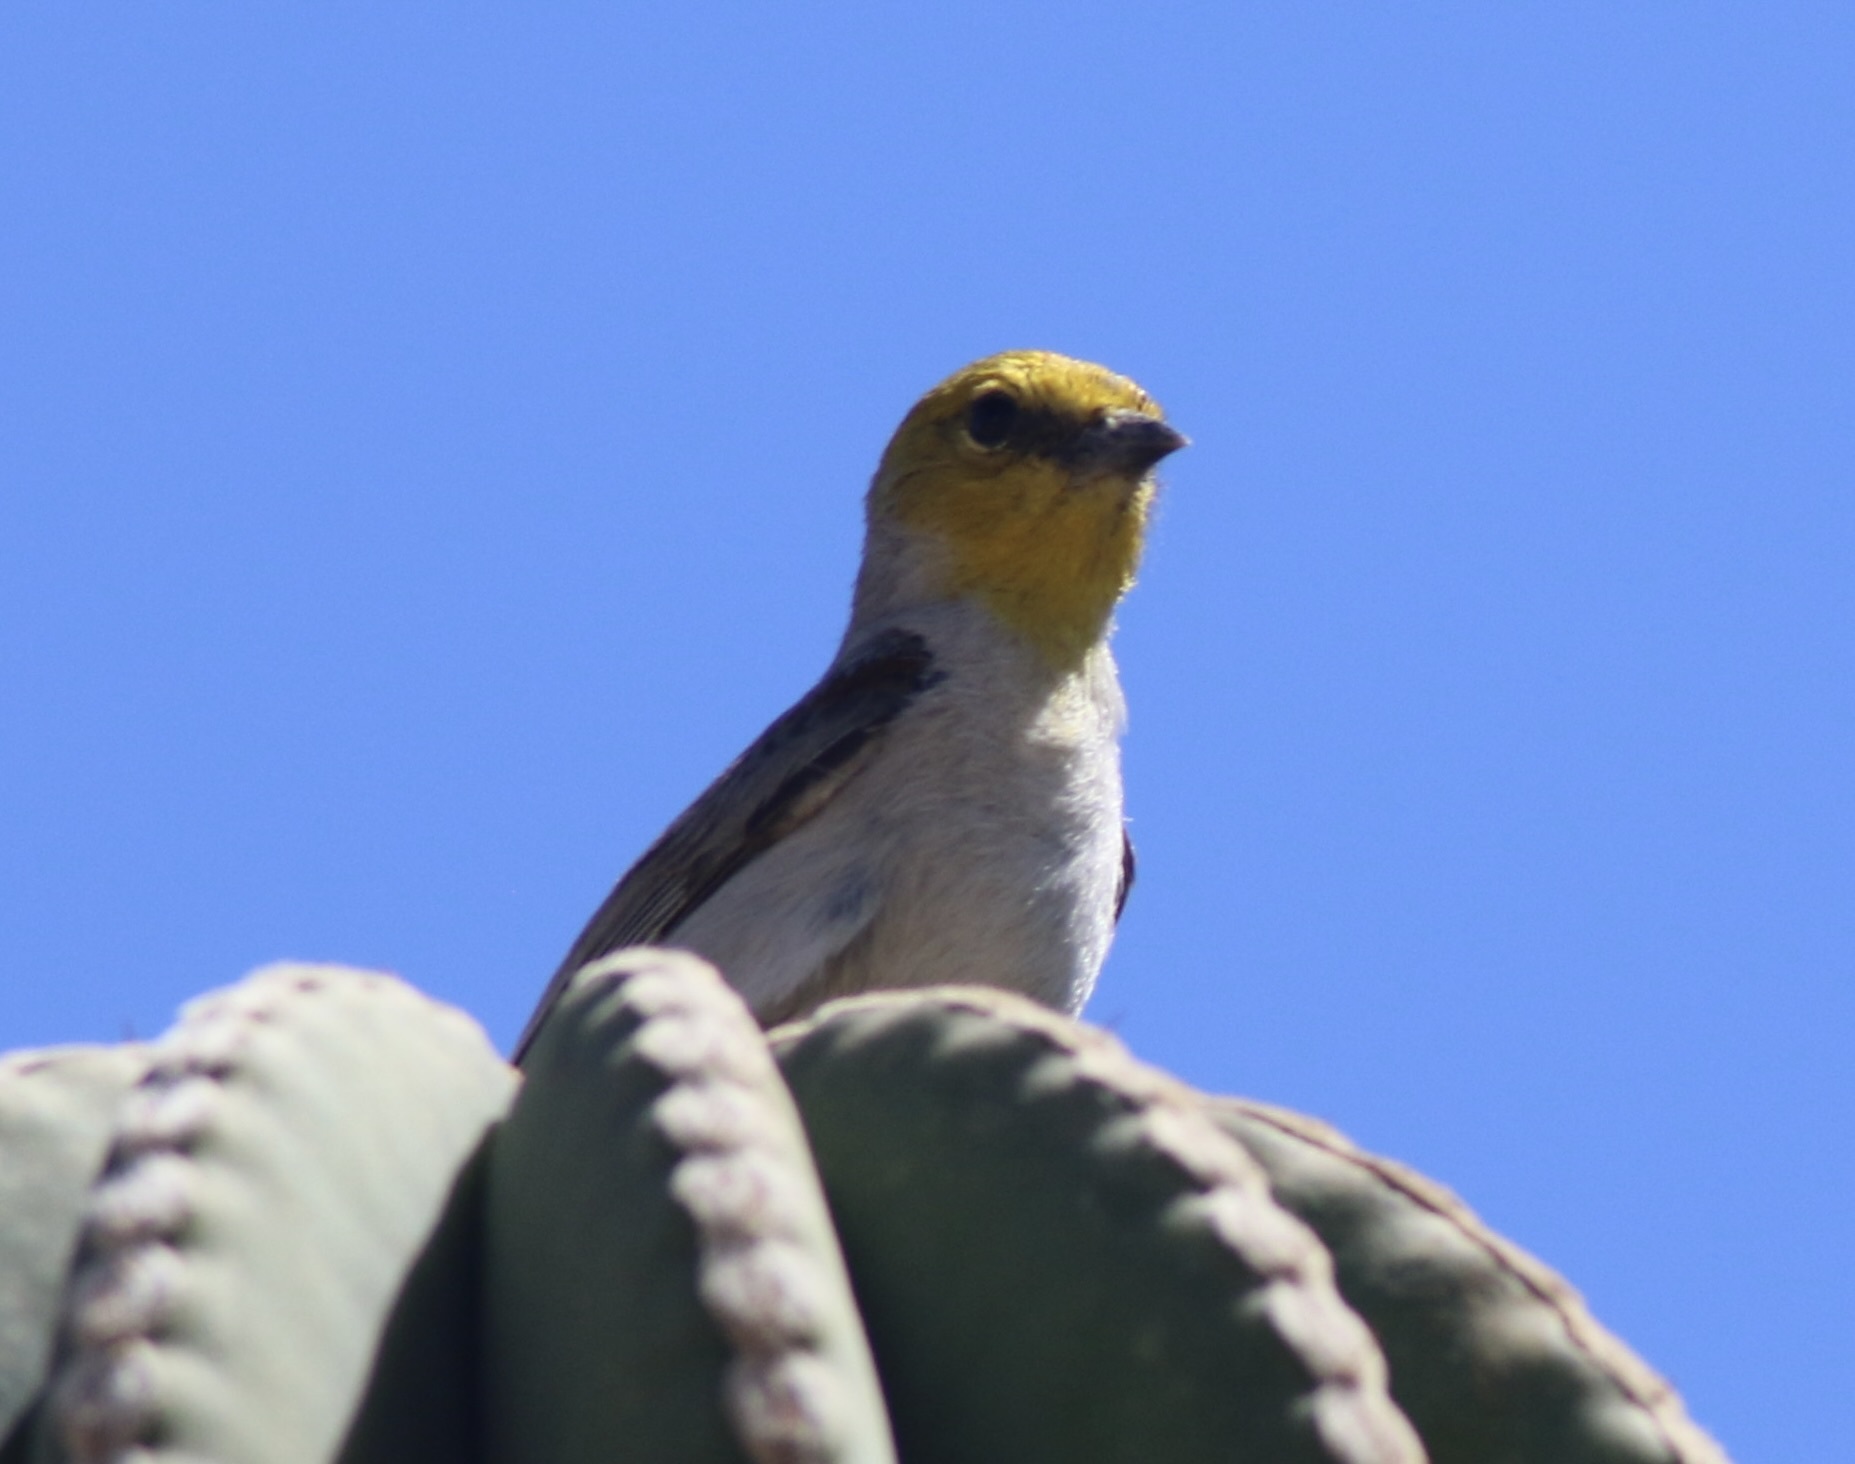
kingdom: Animalia
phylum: Chordata
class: Aves
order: Passeriformes
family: Remizidae
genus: Auriparus
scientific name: Auriparus flaviceps
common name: Verdin
